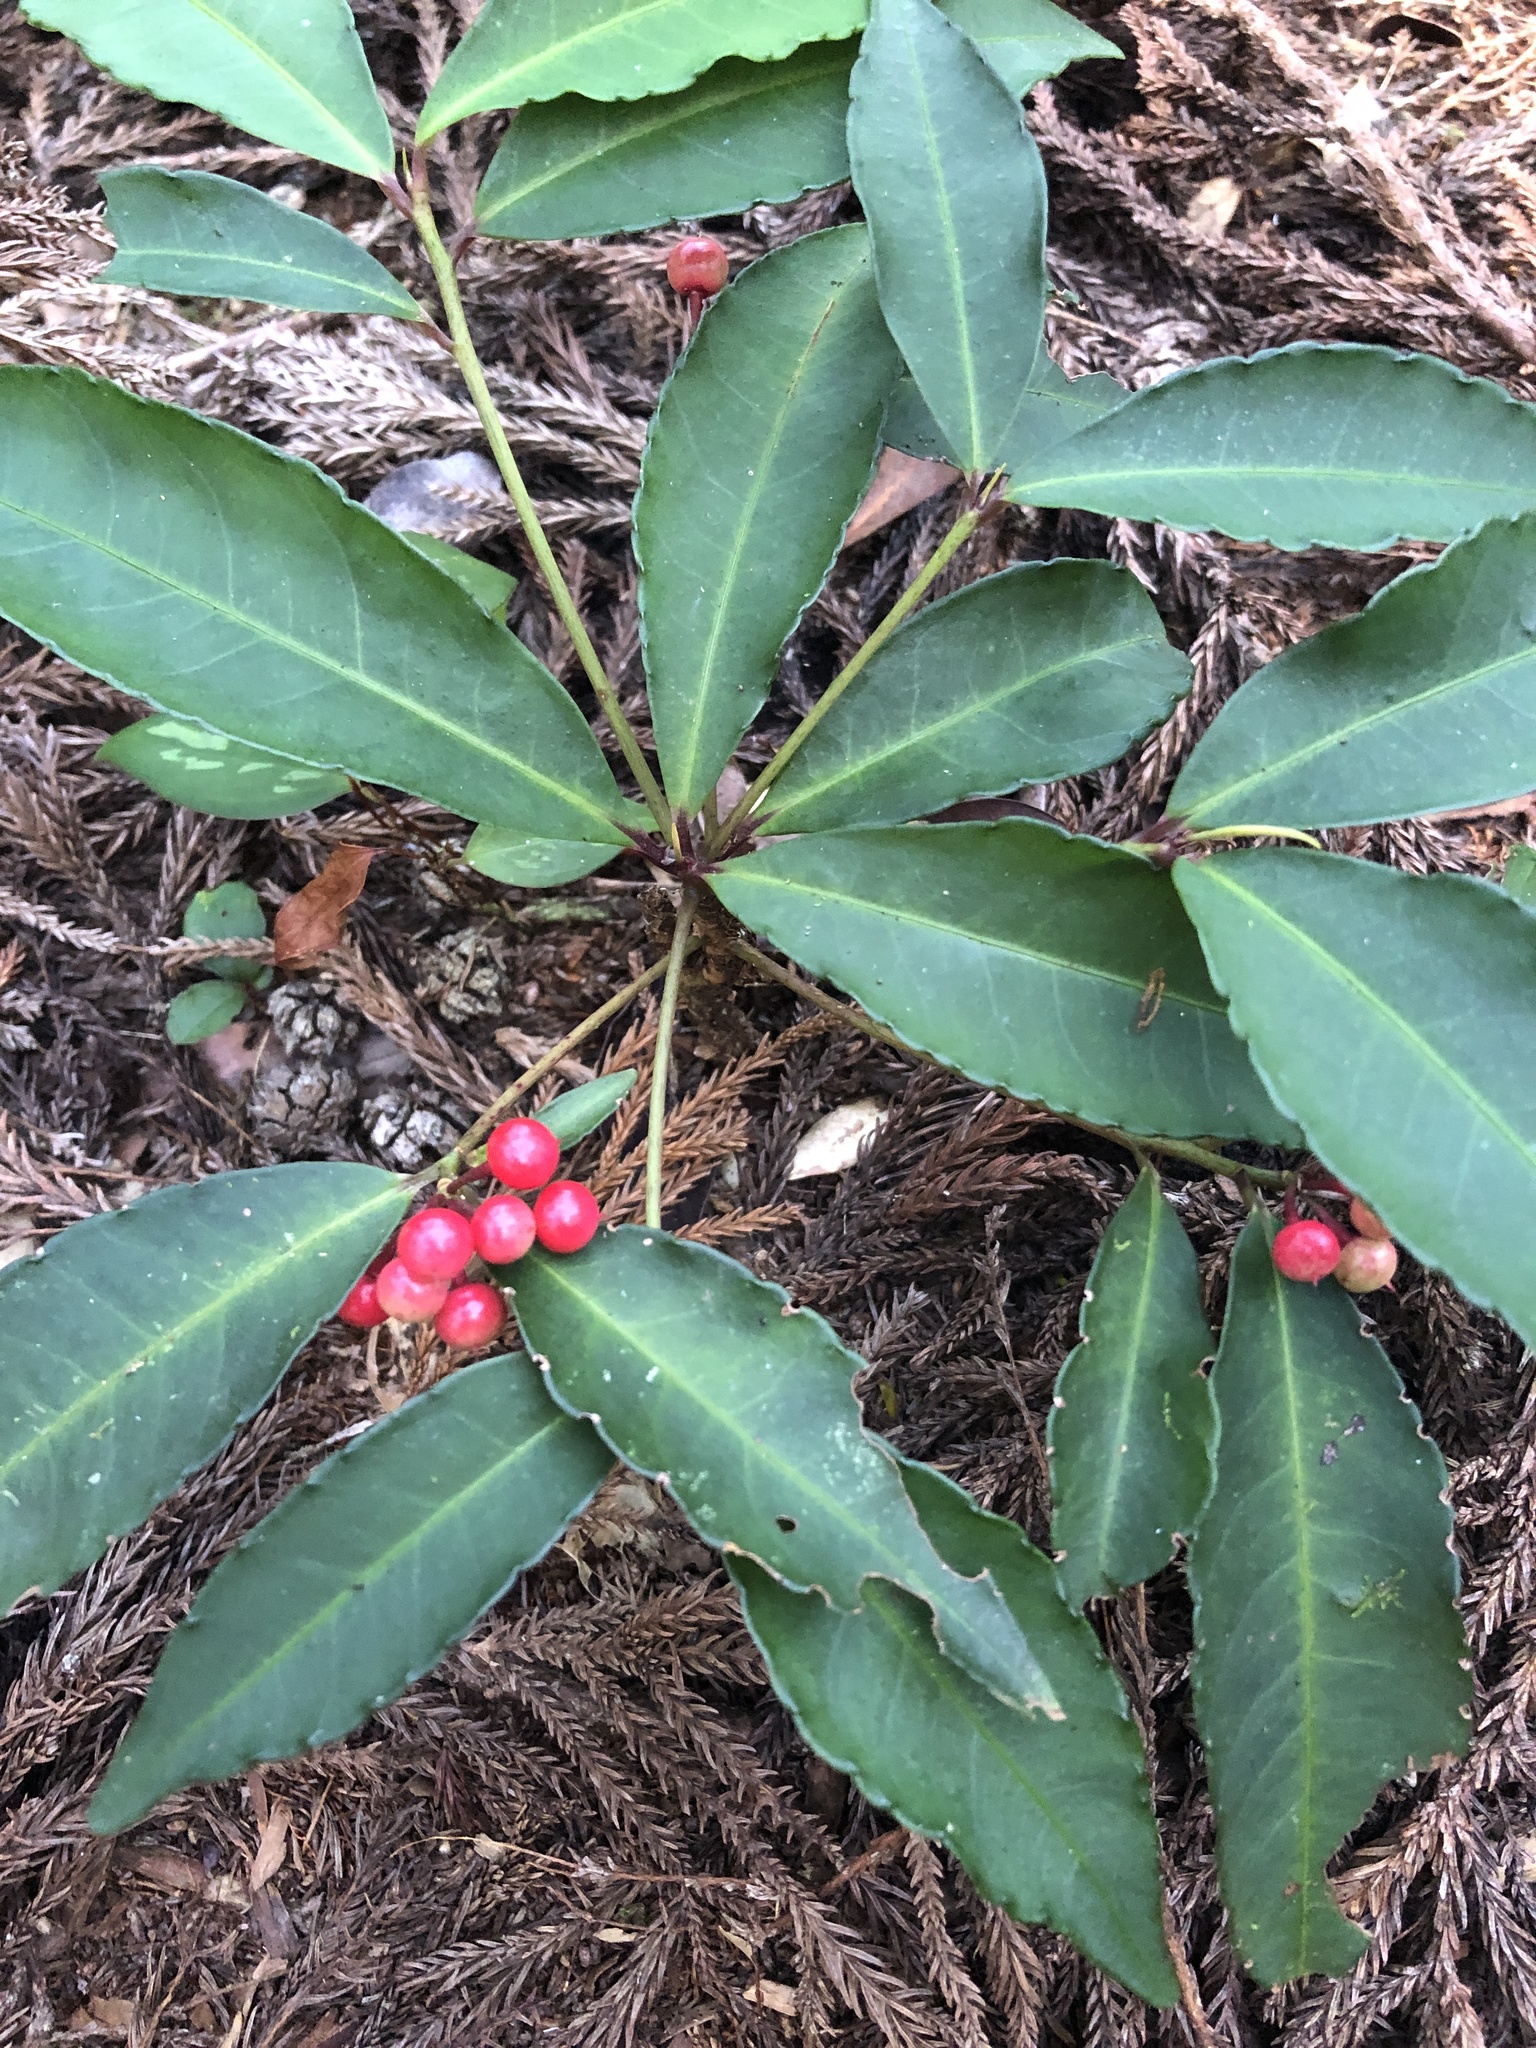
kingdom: Plantae
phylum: Tracheophyta
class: Magnoliopsida
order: Ericales
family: Primulaceae
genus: Ardisia
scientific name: Ardisia crenata
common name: Hen's eyes
